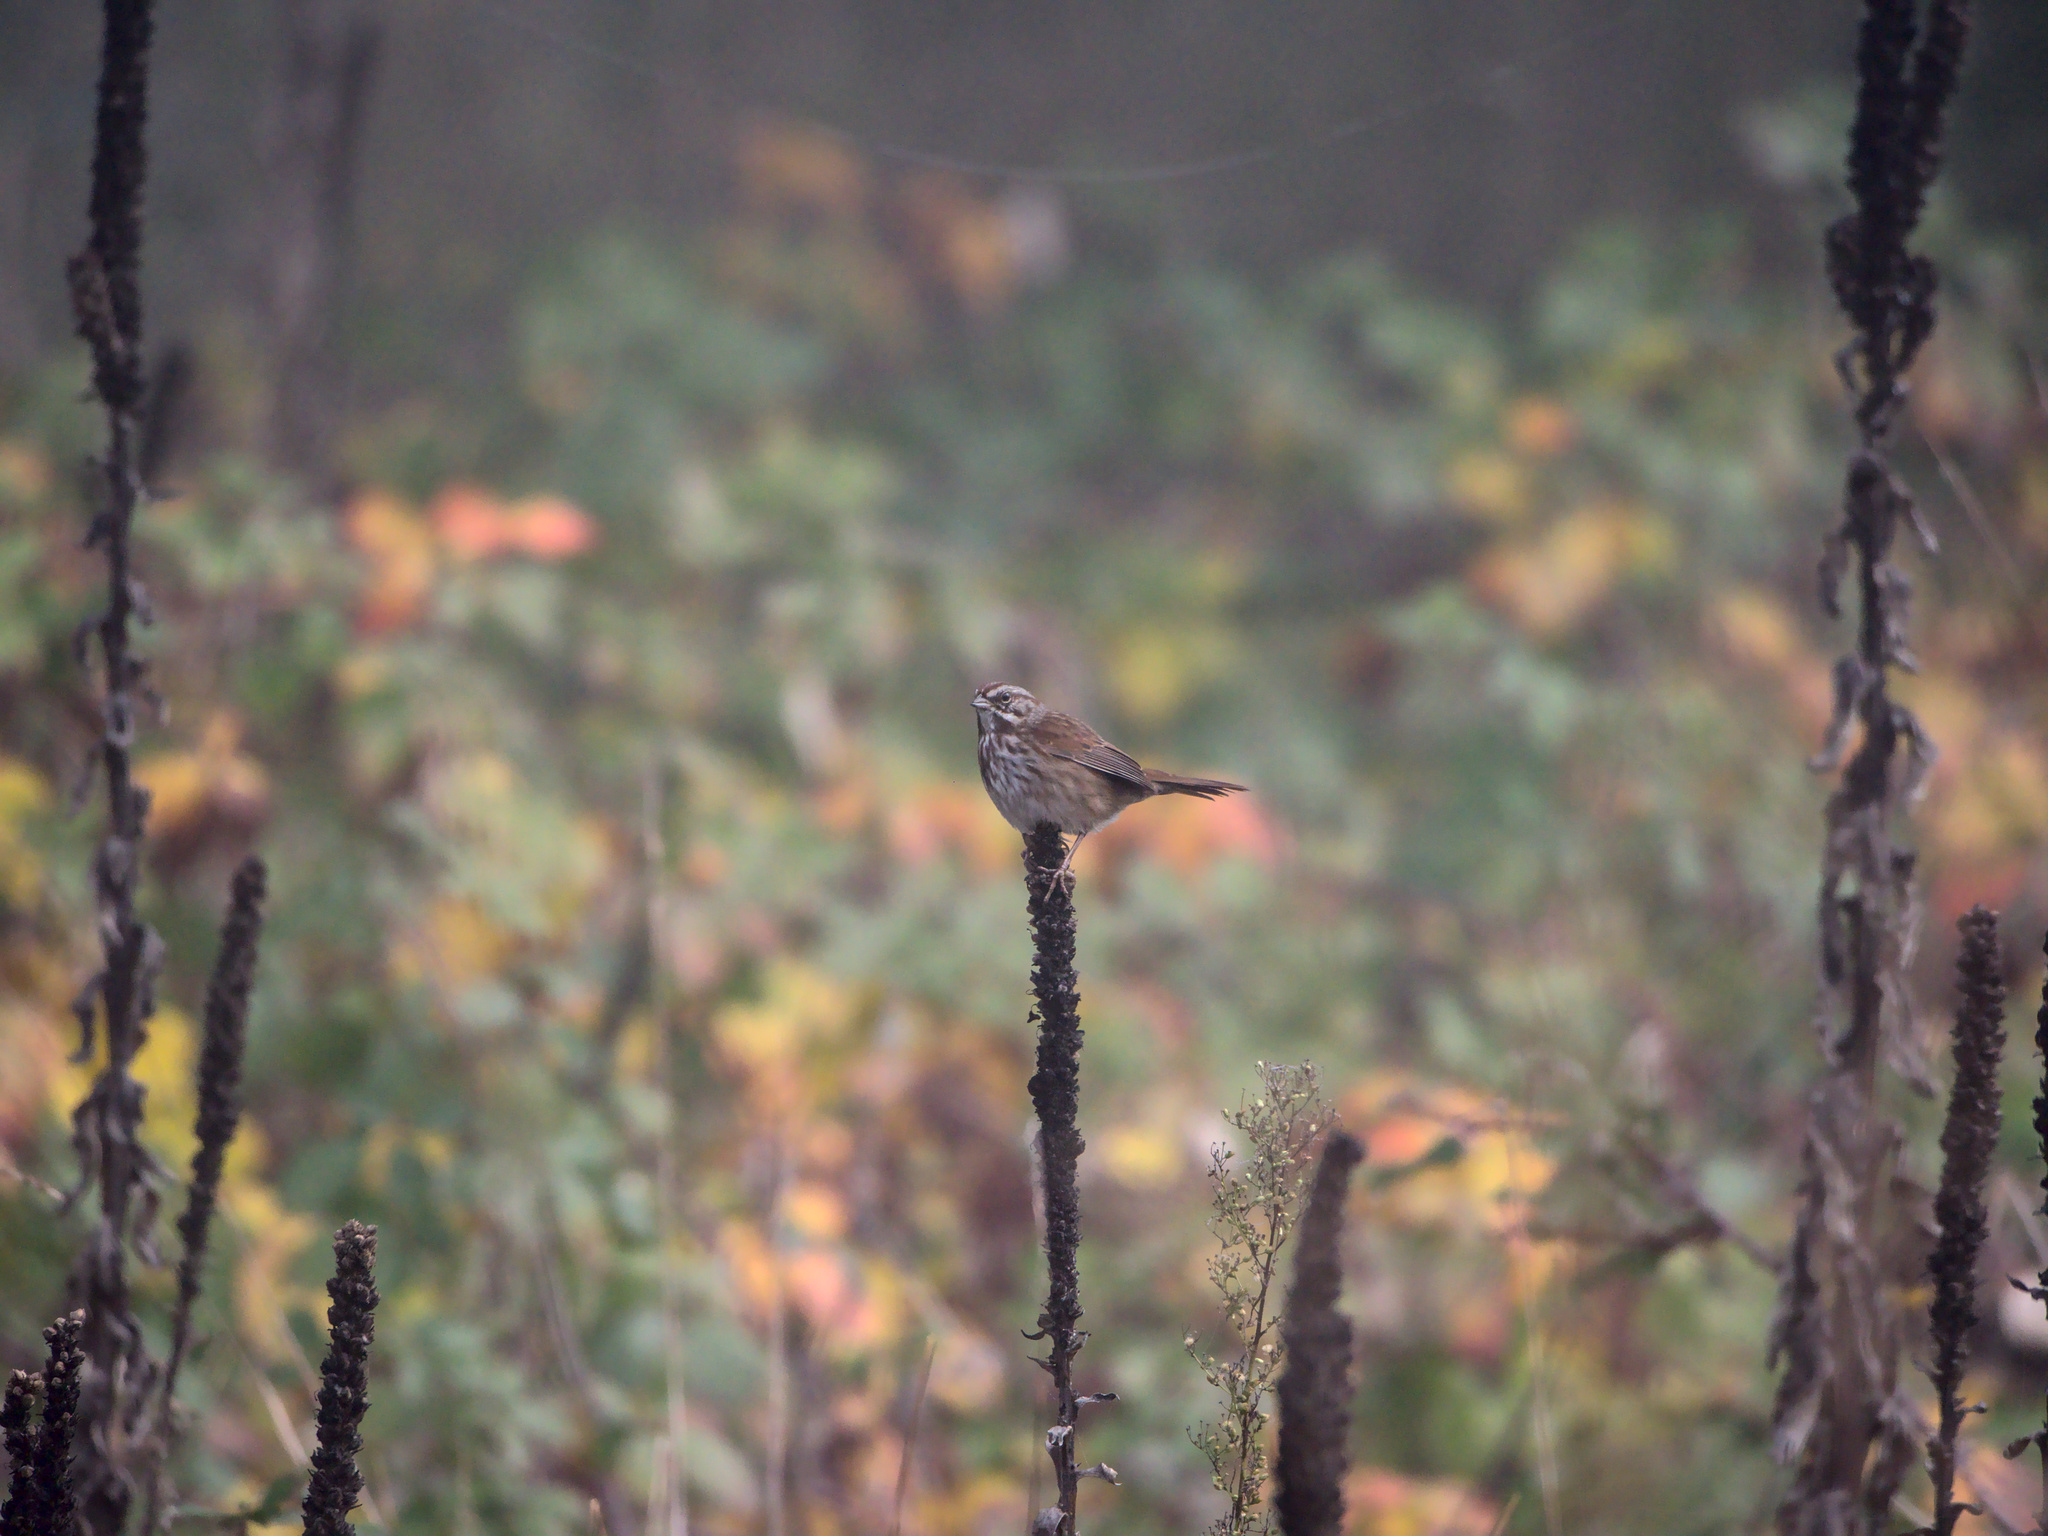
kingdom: Animalia
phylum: Chordata
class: Aves
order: Passeriformes
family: Passerellidae
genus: Melospiza
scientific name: Melospiza melodia
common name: Song sparrow
